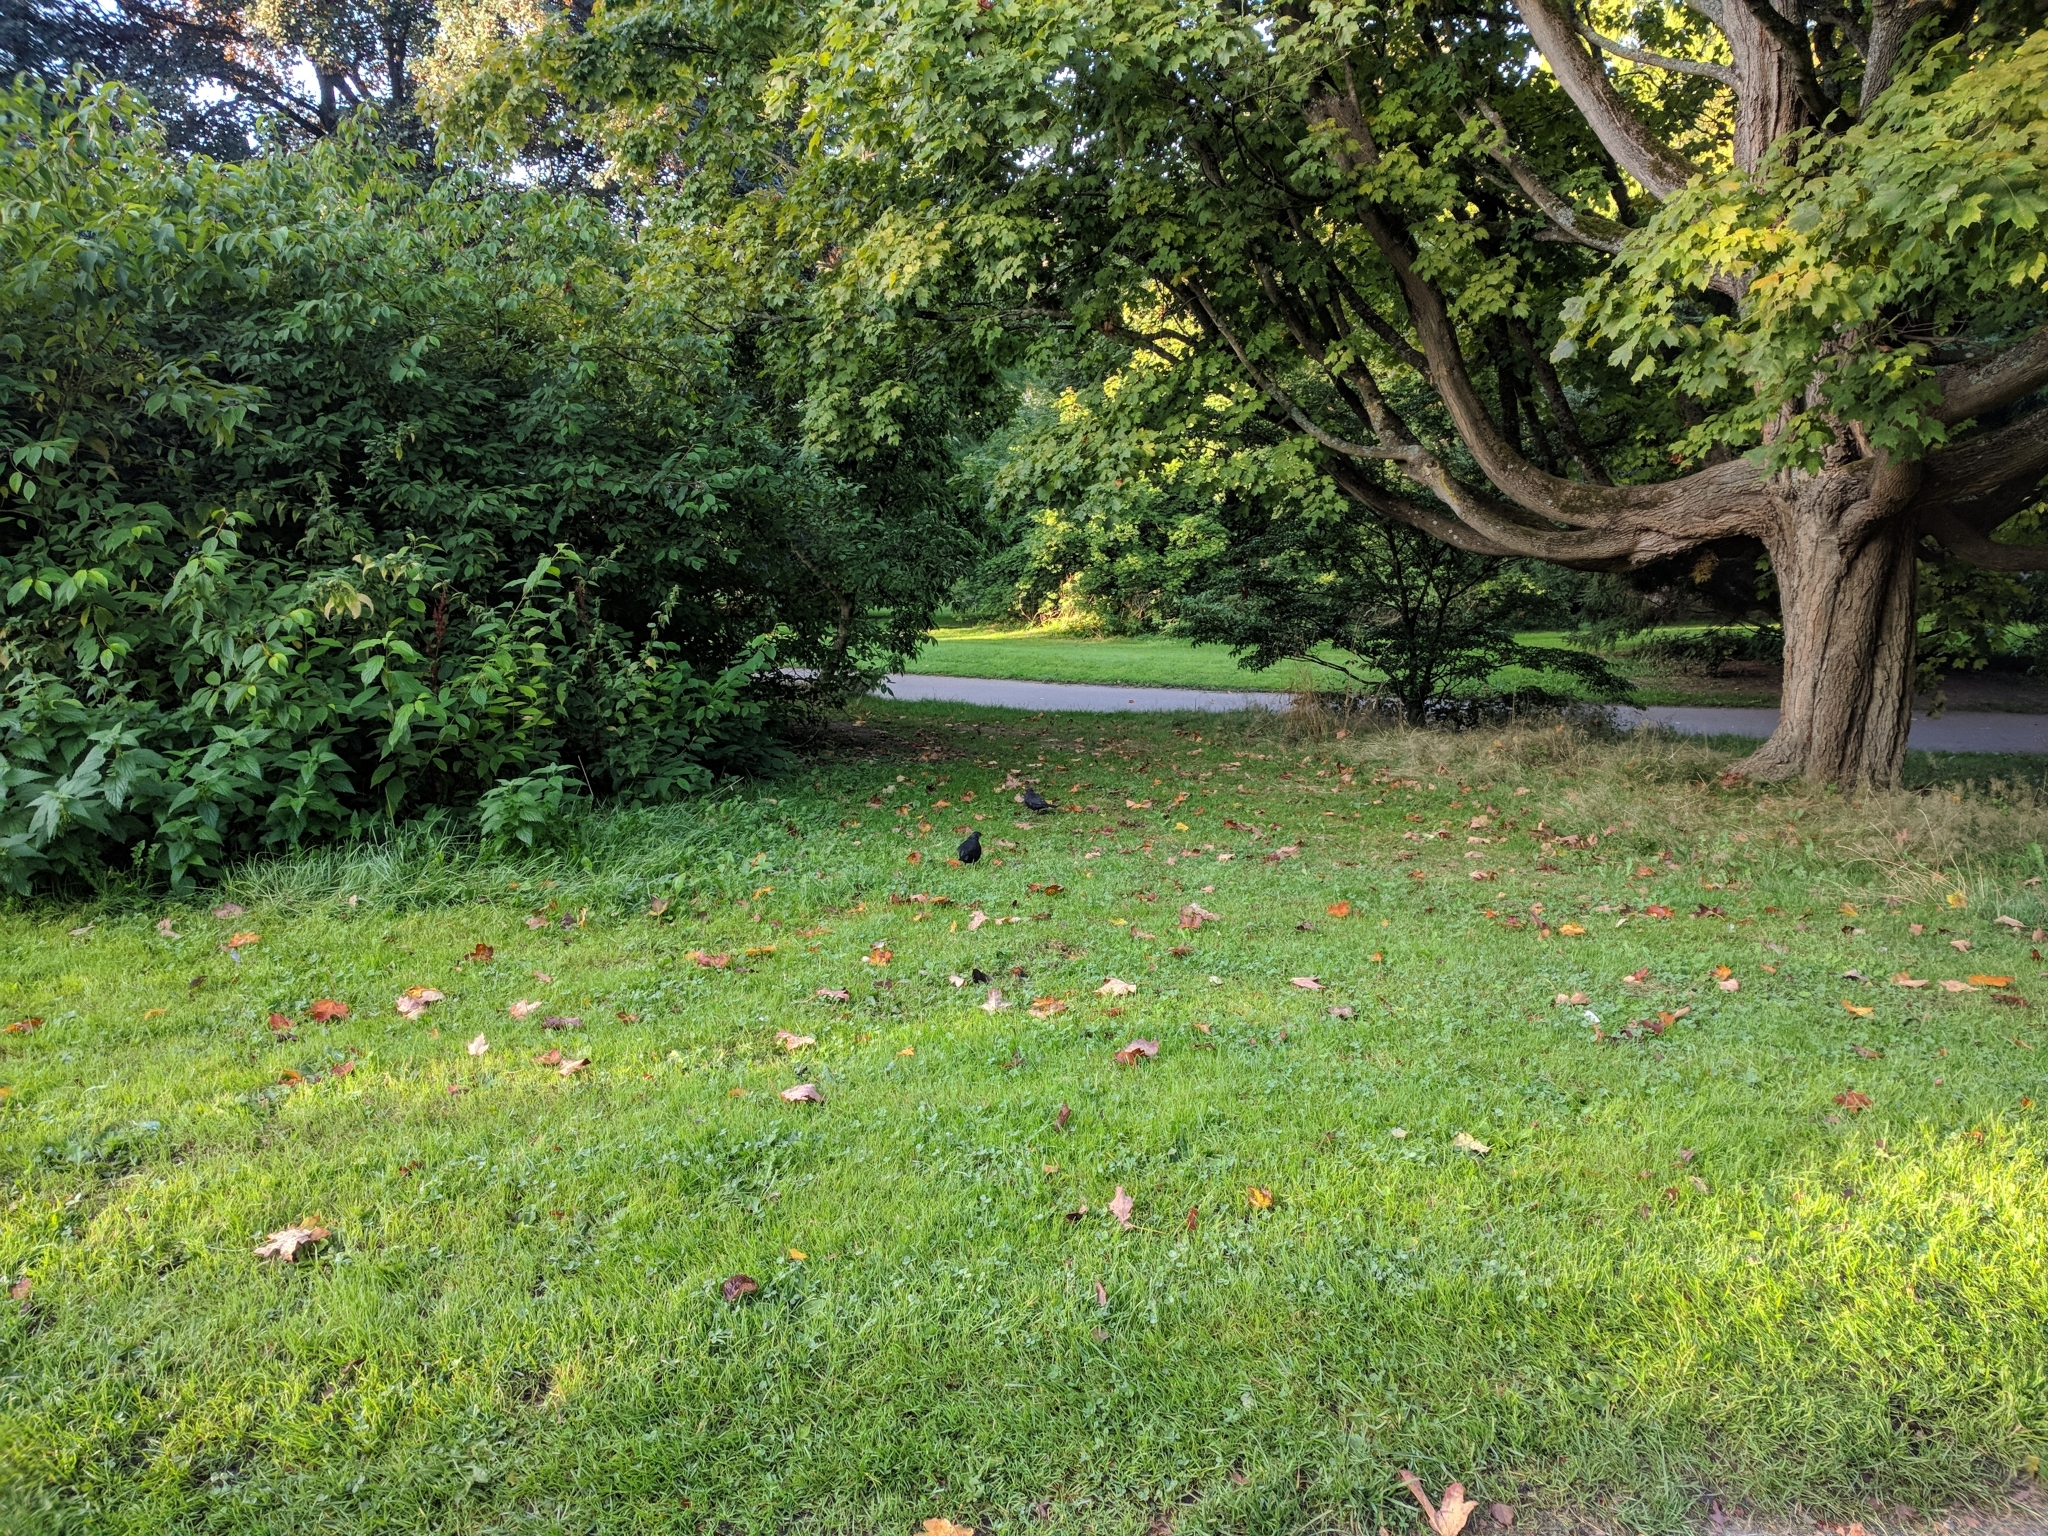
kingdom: Animalia
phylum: Chordata
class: Aves
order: Passeriformes
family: Turdidae
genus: Turdus
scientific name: Turdus merula
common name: Common blackbird
